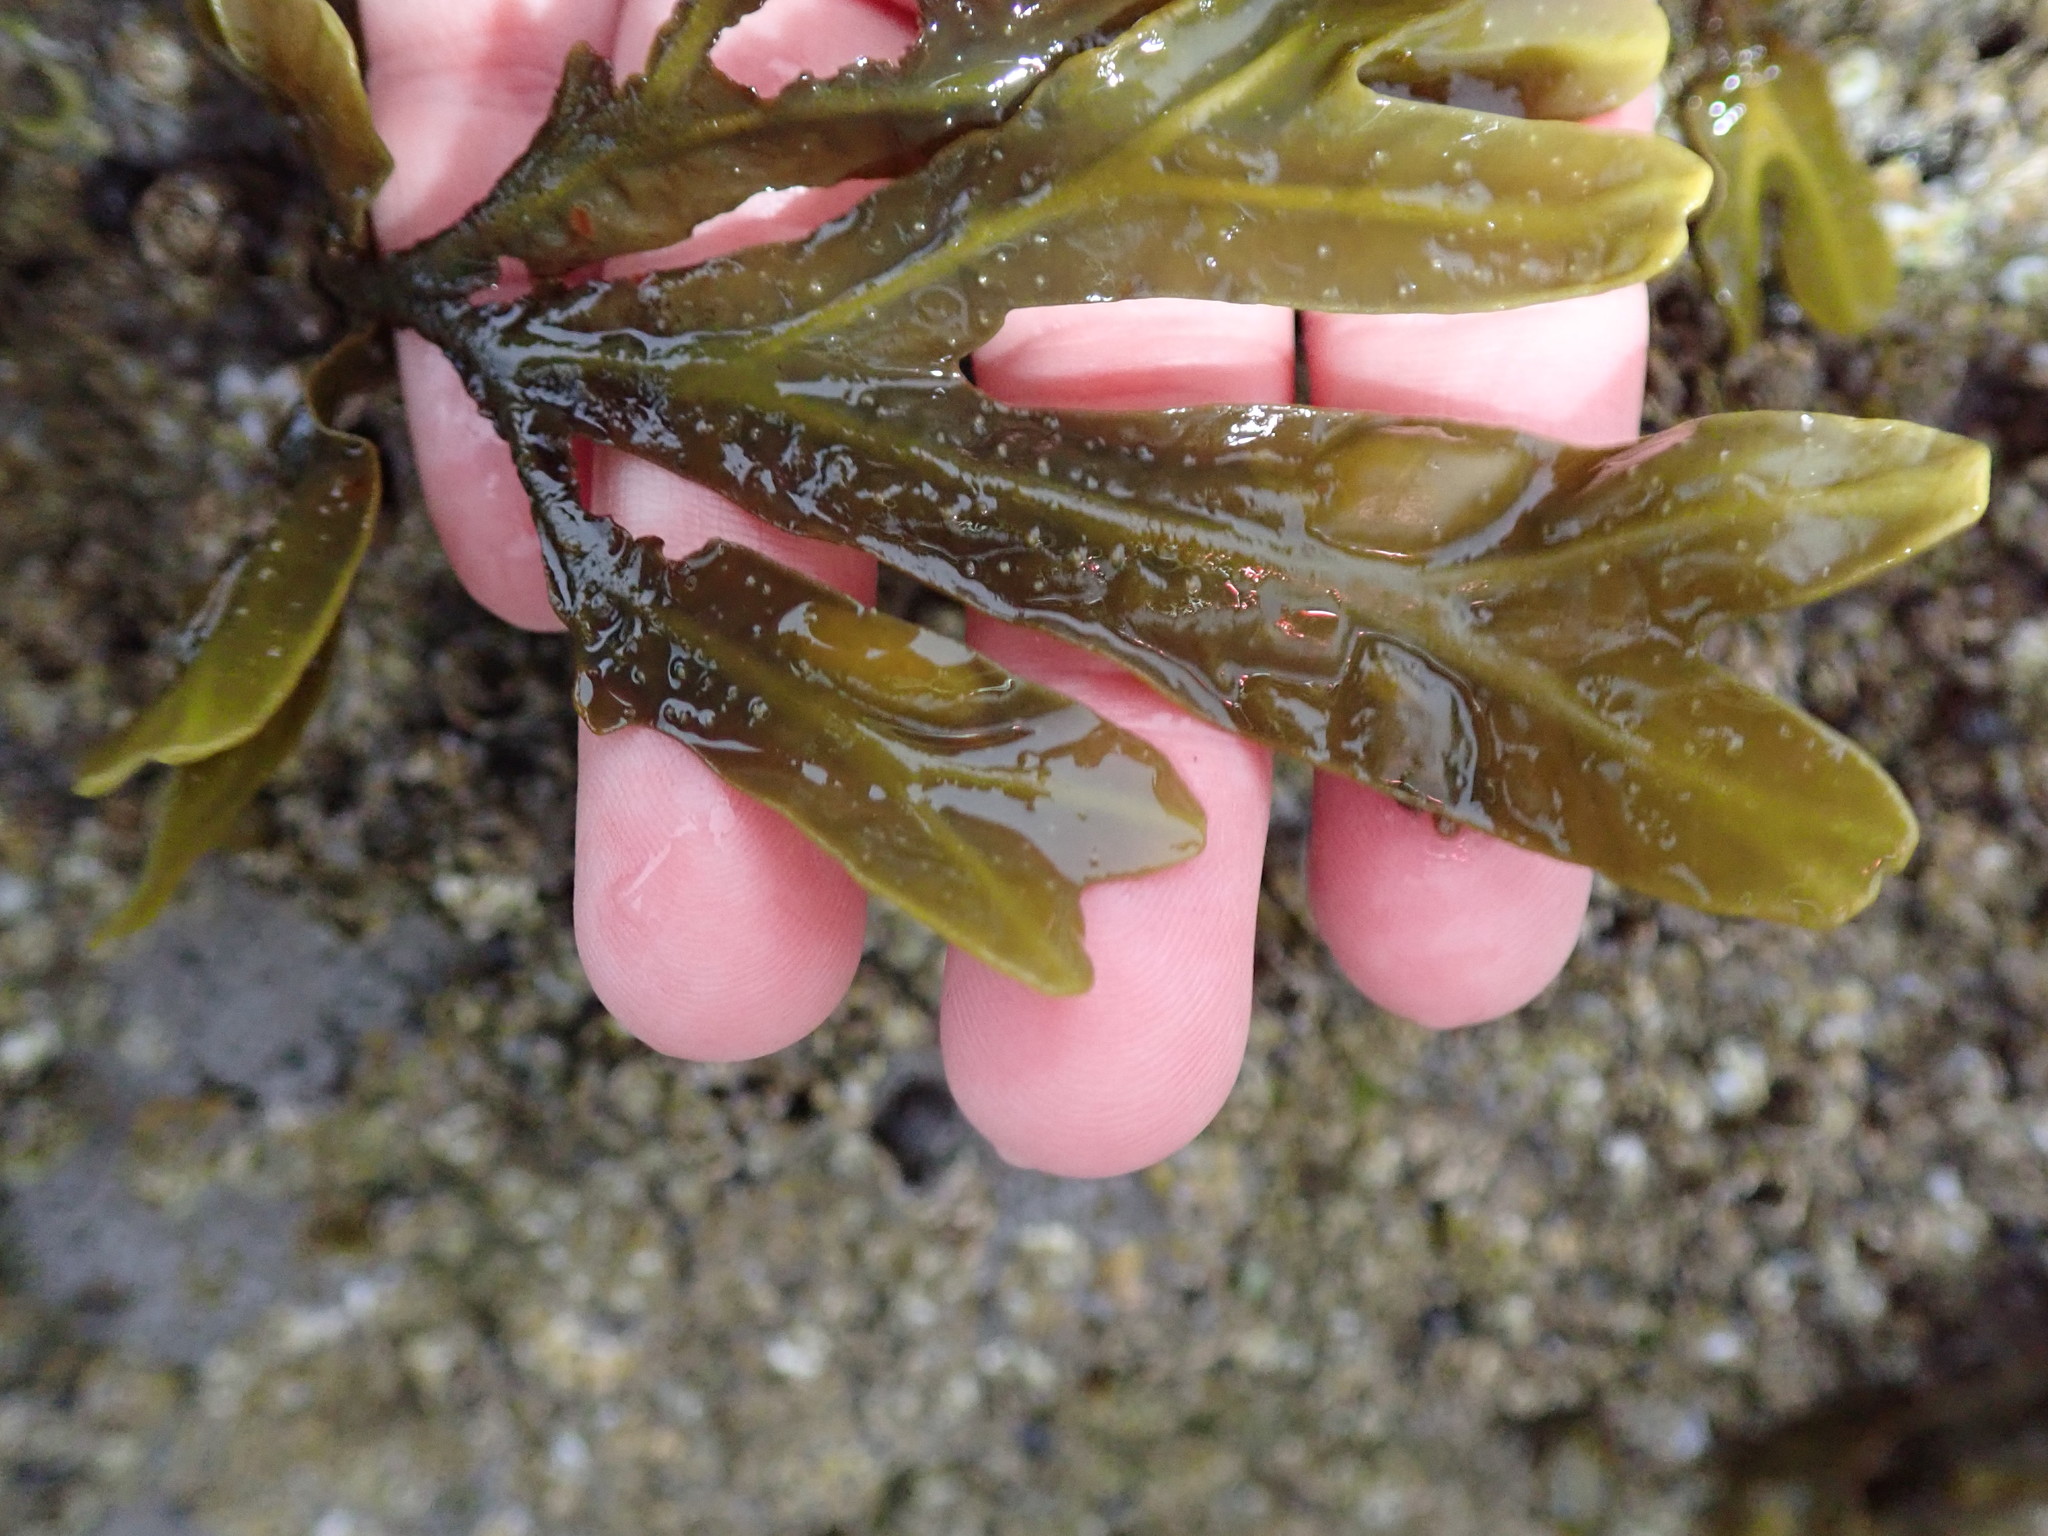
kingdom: Chromista
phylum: Ochrophyta
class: Phaeophyceae
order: Fucales
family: Fucaceae
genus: Fucus
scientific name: Fucus vesiculosus
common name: Bladder wrack
